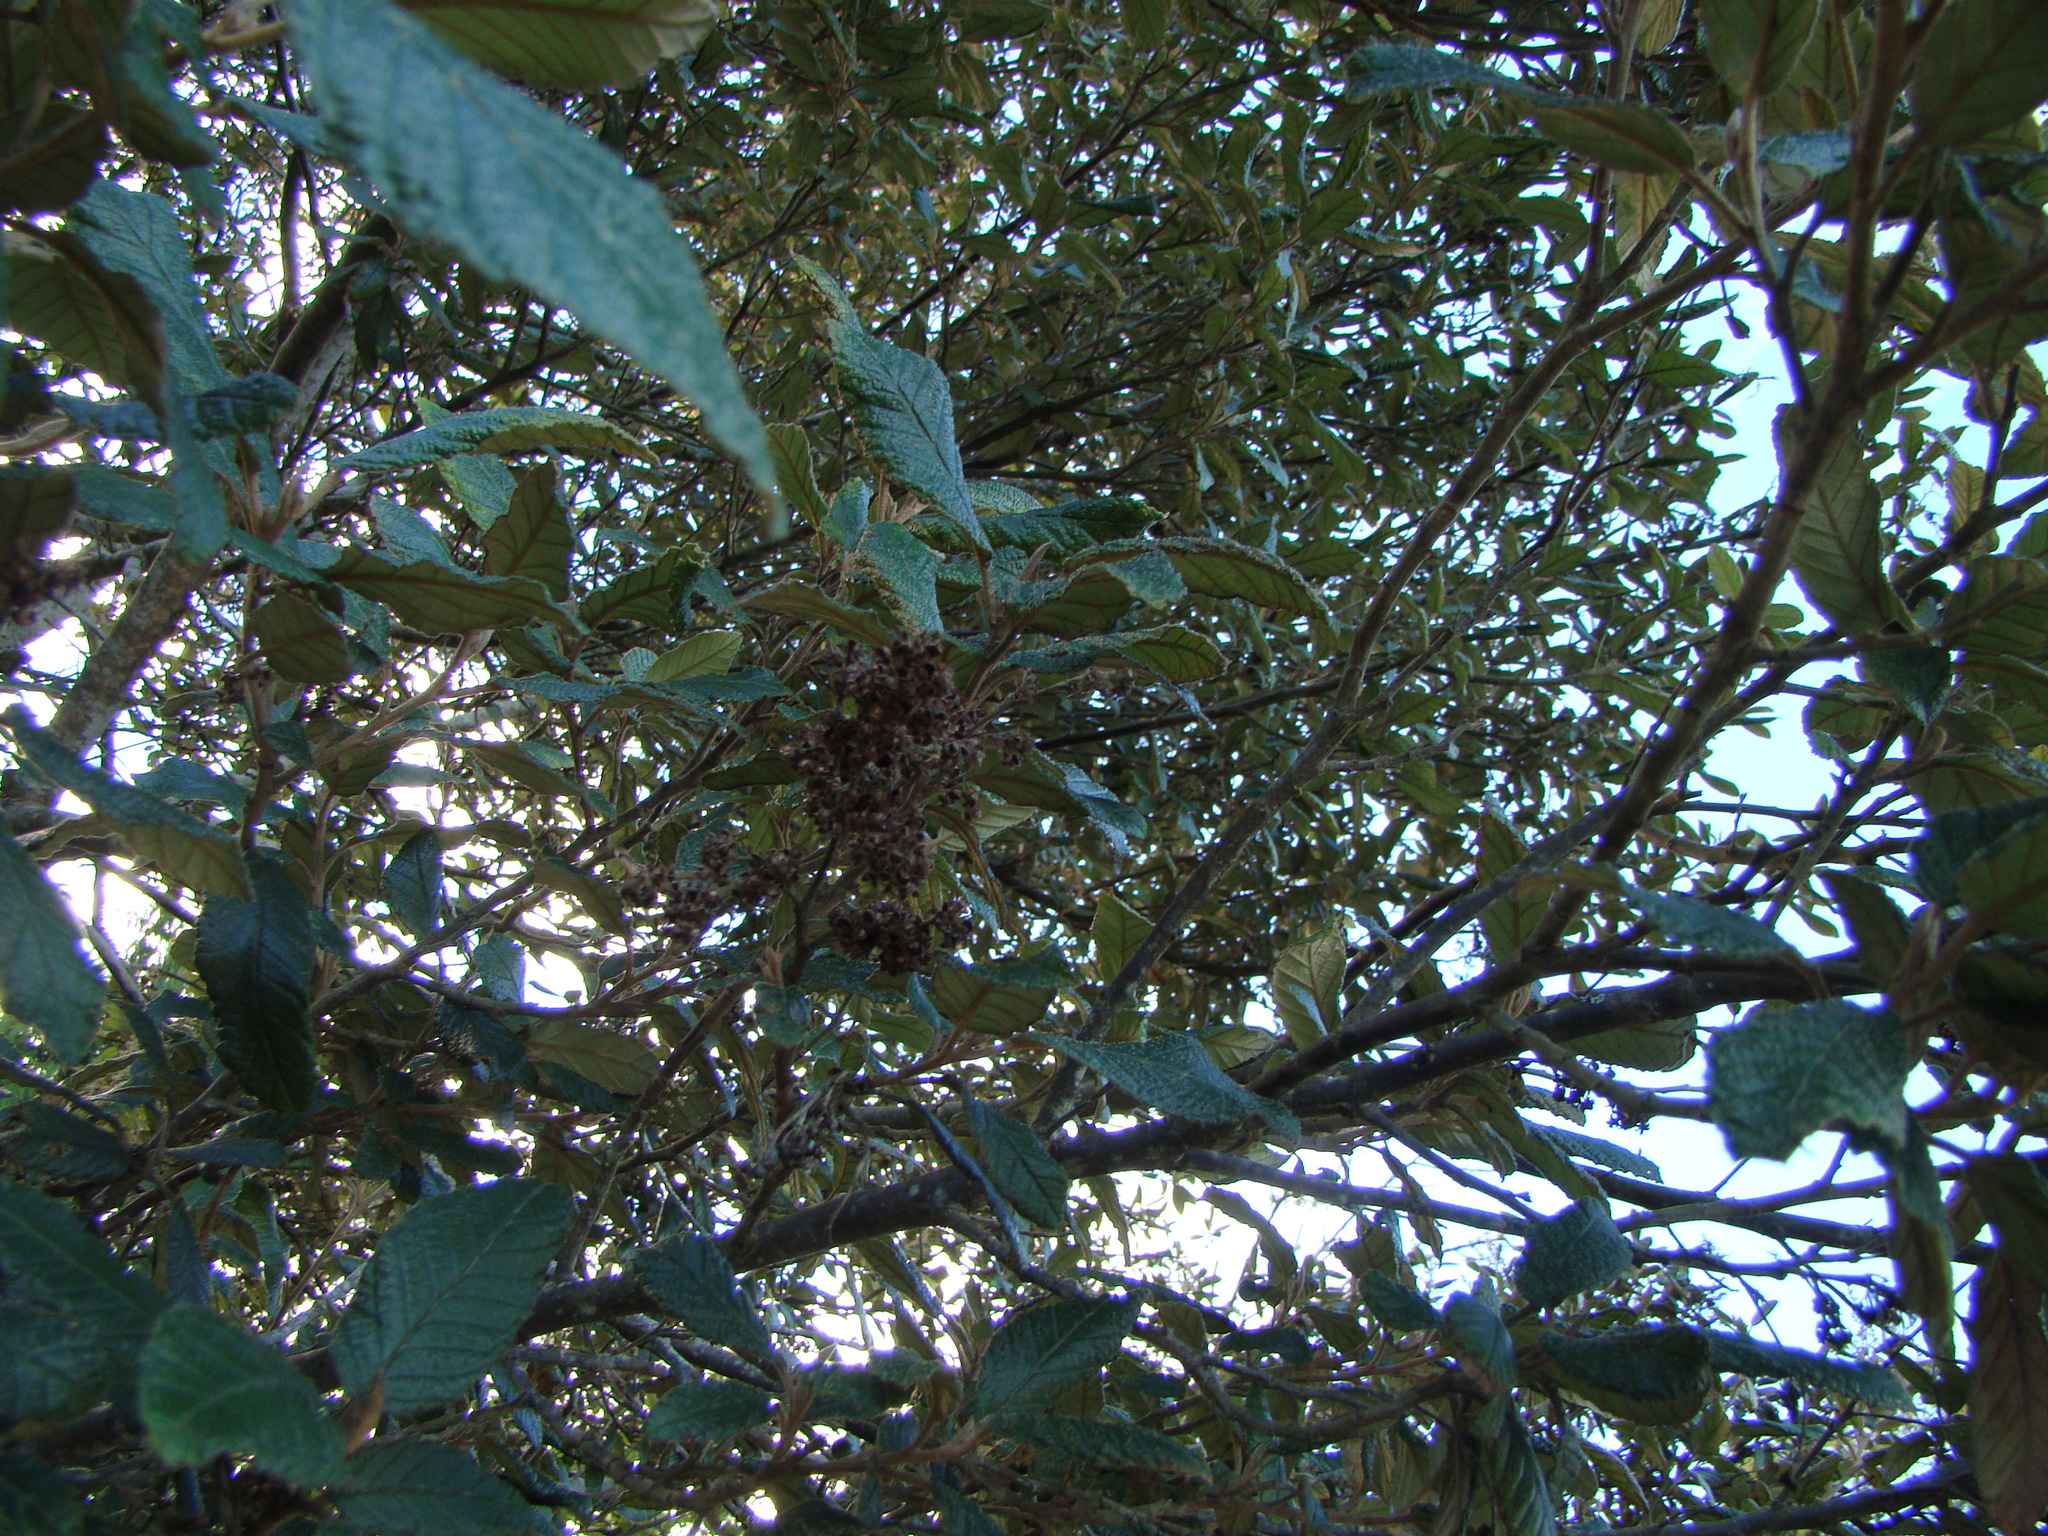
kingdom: Plantae
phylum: Tracheophyta
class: Magnoliopsida
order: Rosales
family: Rhamnaceae
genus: Pomaderris
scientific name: Pomaderris apetala
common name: Hazel pomaderris
